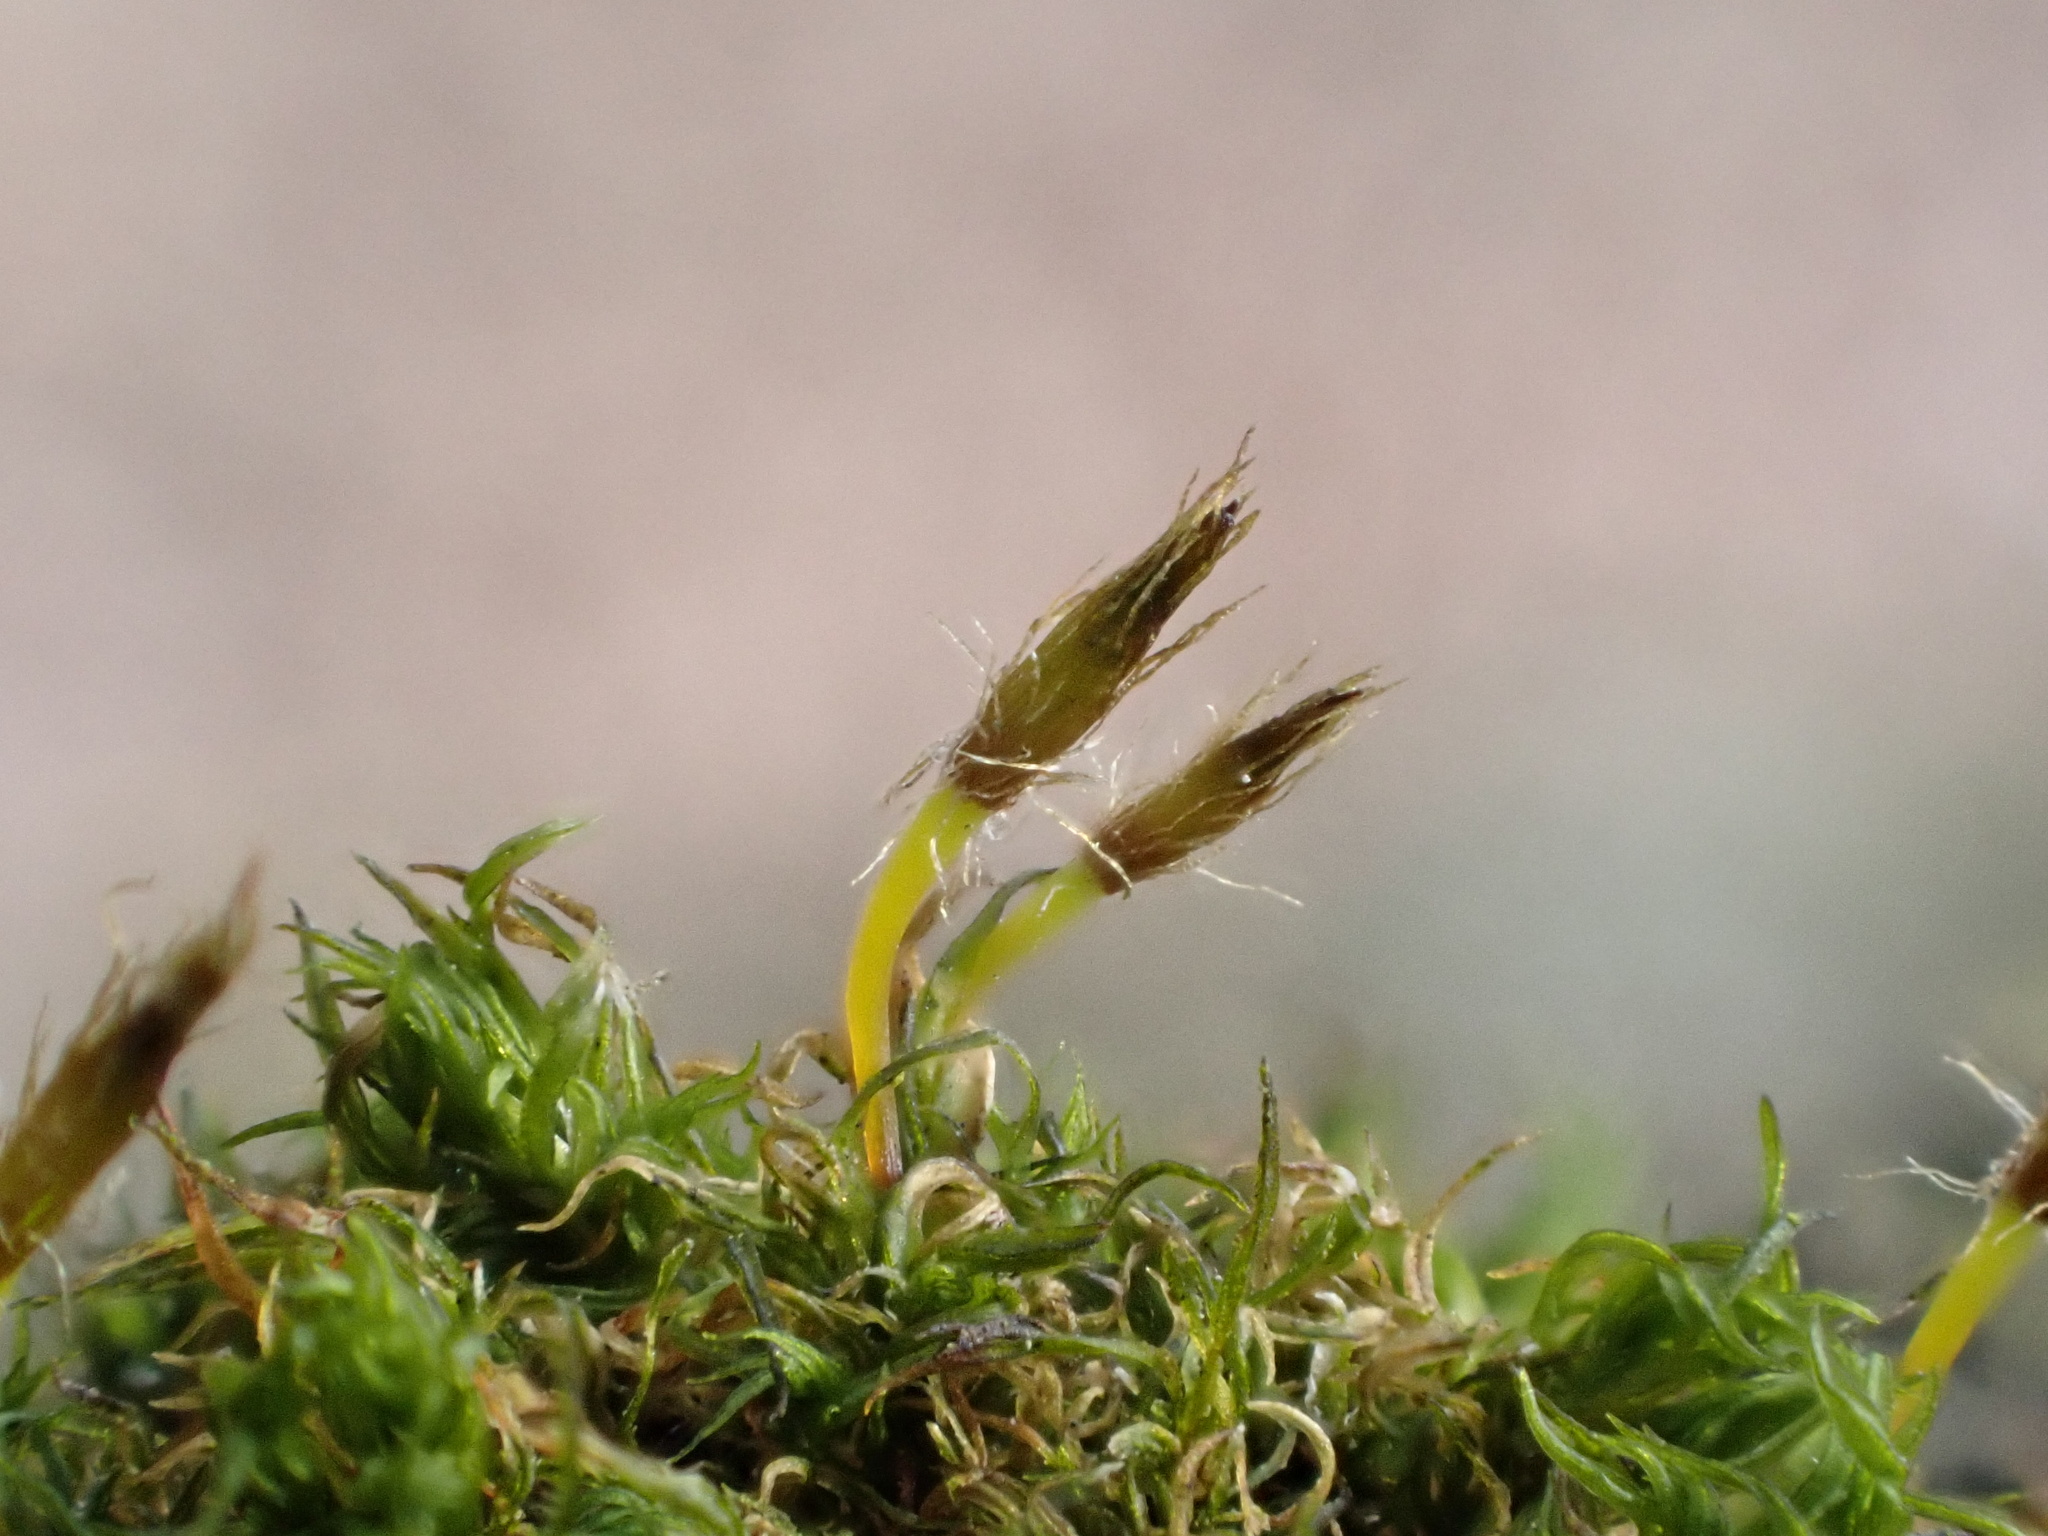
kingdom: Plantae
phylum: Bryophyta
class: Bryopsida
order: Orthotrichales
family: Orthotrichaceae
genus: Ulota
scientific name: Ulota bruchii
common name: Bruch's pincushion
